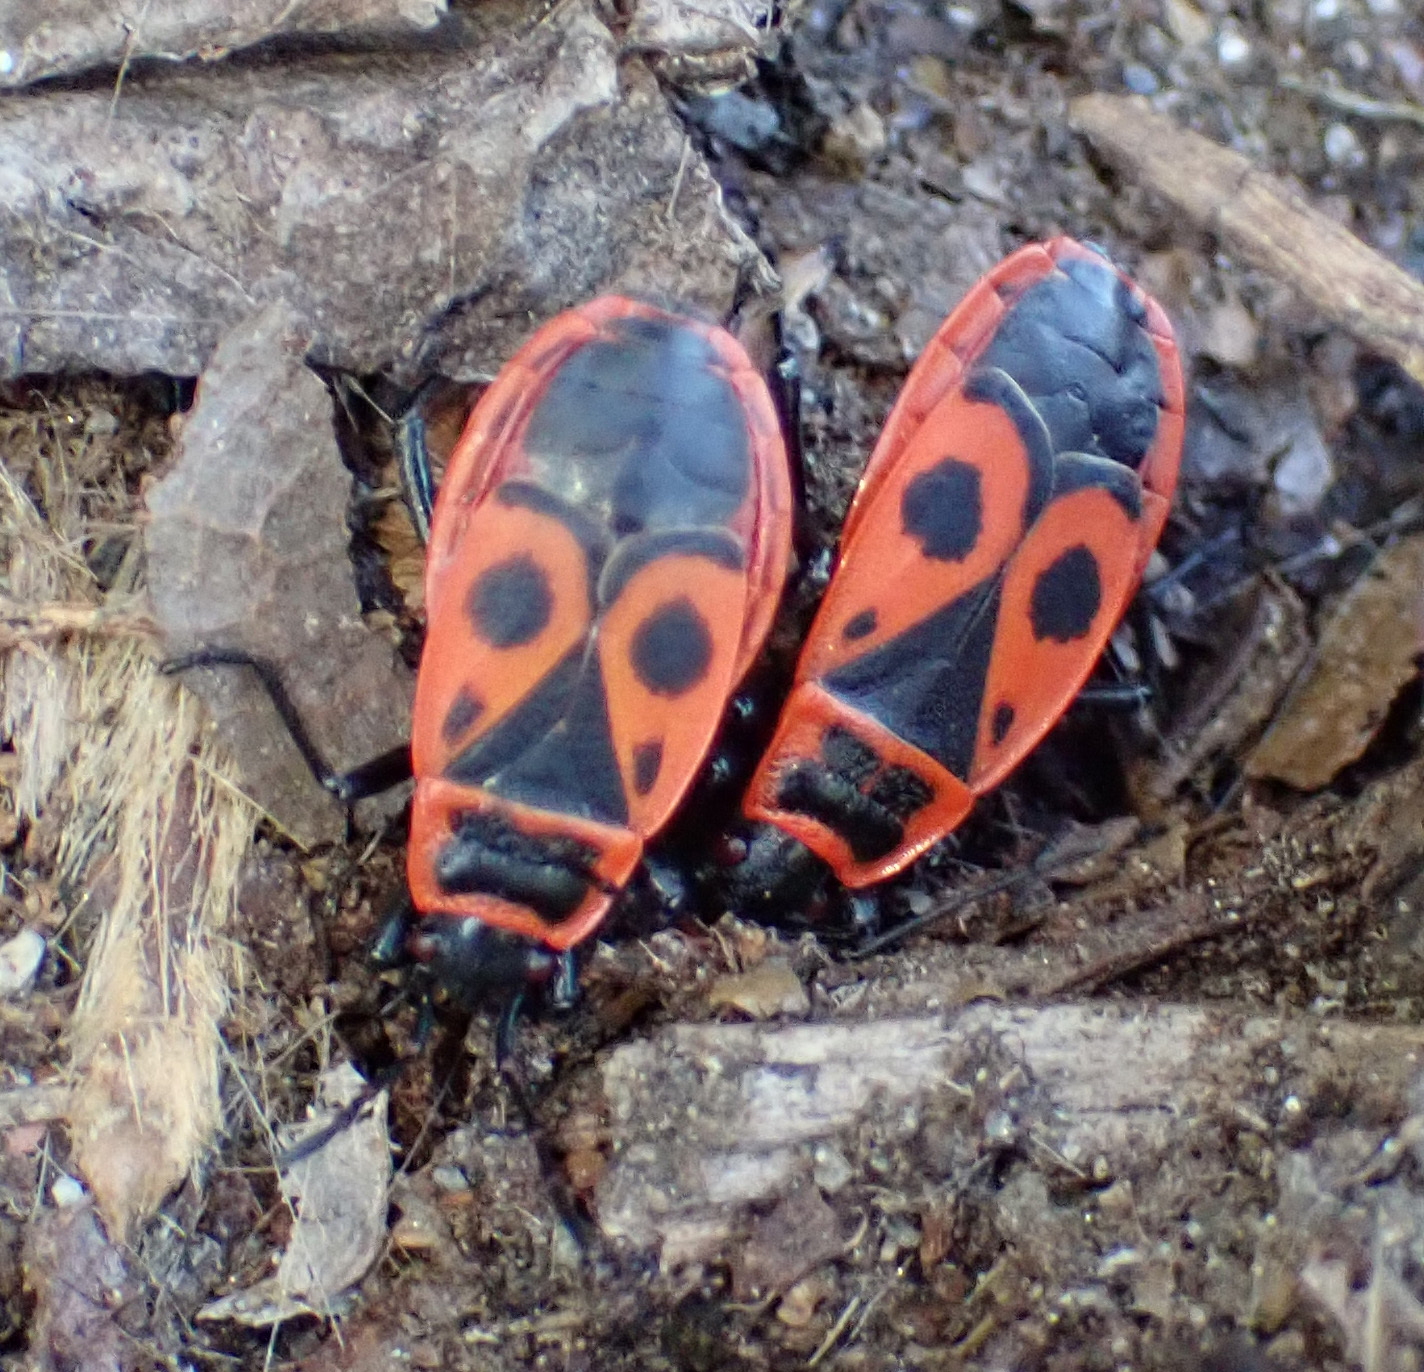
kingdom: Animalia
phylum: Arthropoda
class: Insecta
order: Hemiptera
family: Pyrrhocoridae
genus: Pyrrhocoris
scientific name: Pyrrhocoris apterus
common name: Firebug
